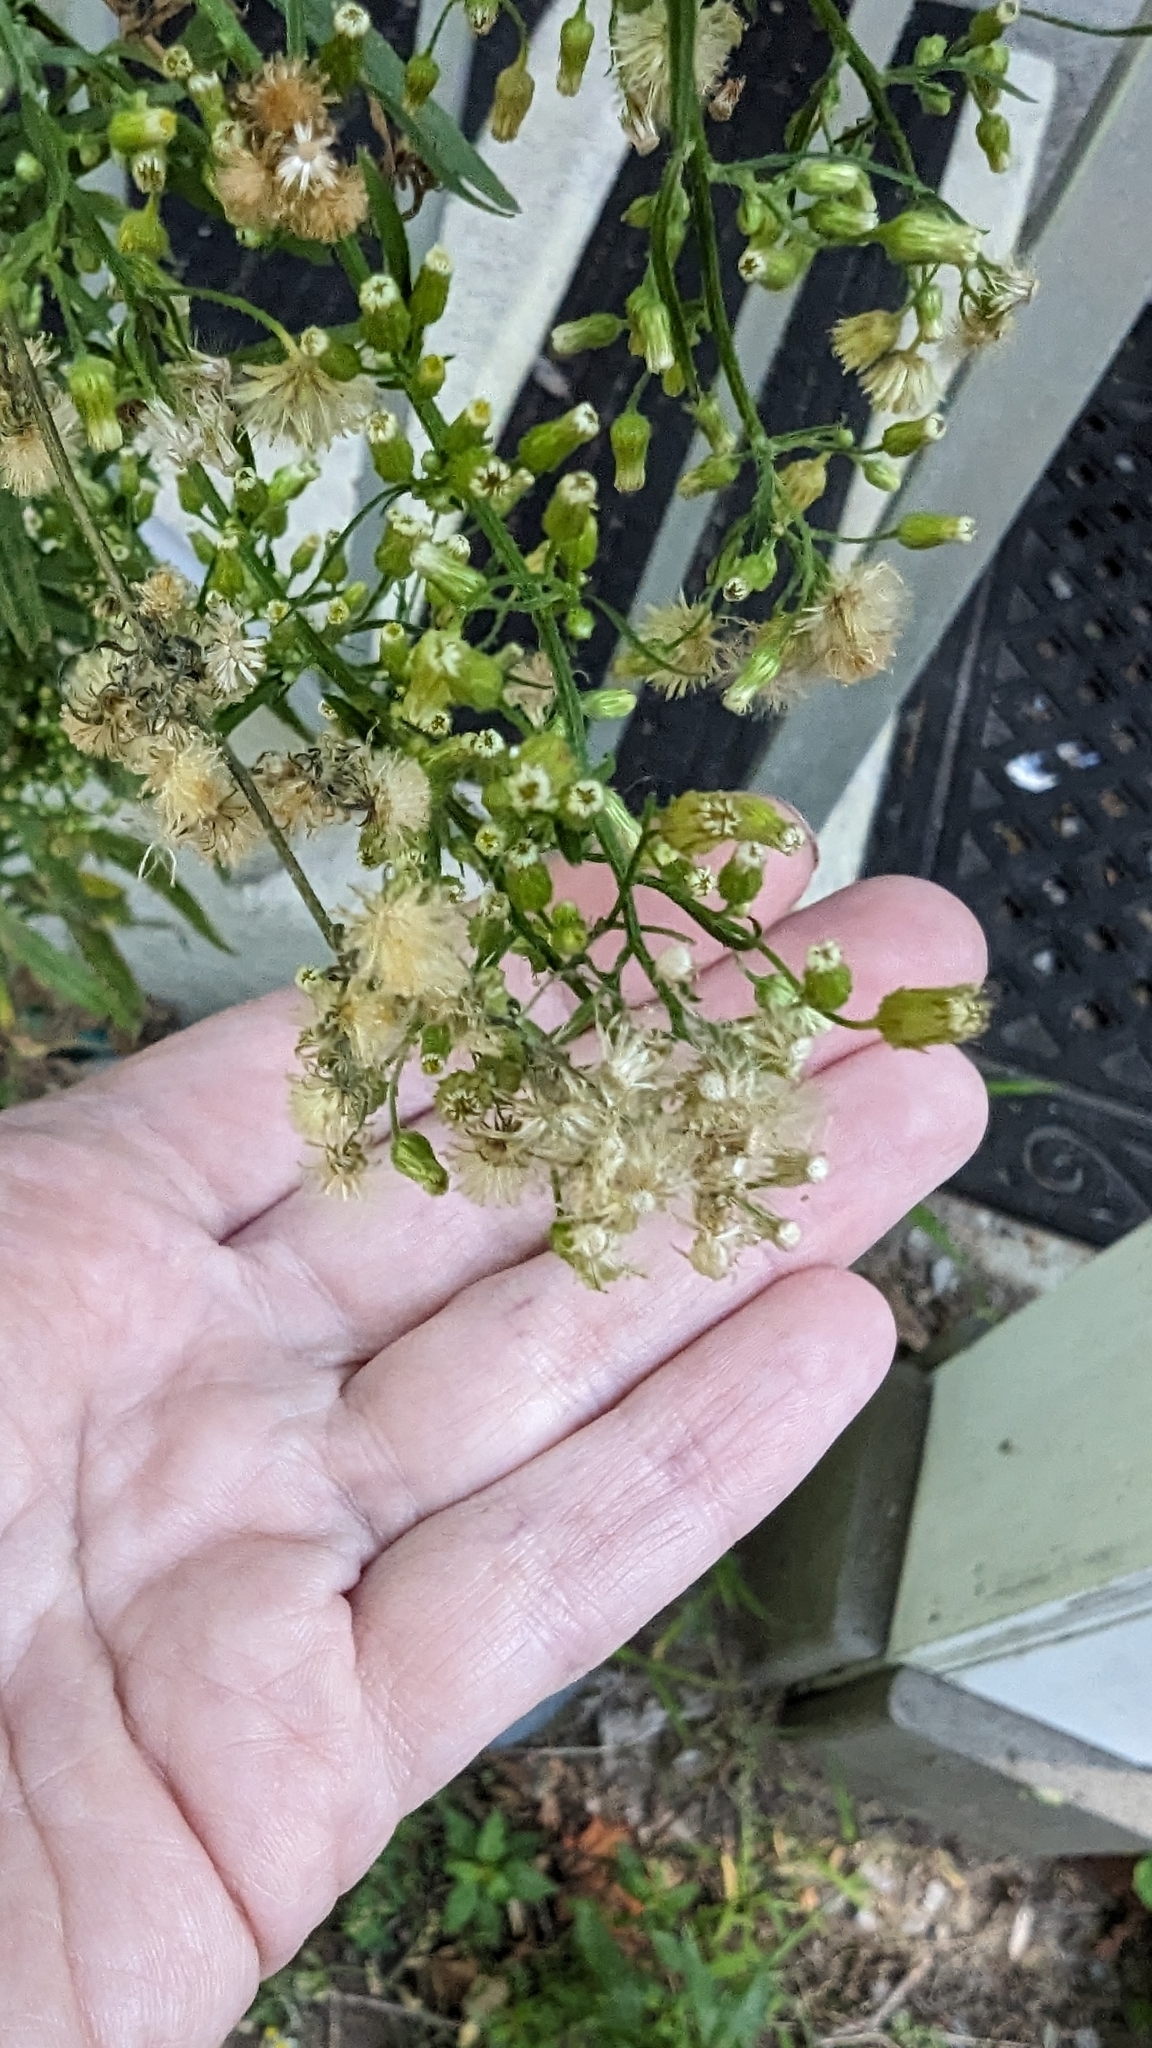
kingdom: Plantae
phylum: Tracheophyta
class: Magnoliopsida
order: Asterales
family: Asteraceae
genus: Erigeron
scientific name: Erigeron canadensis
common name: Canadian fleabane
